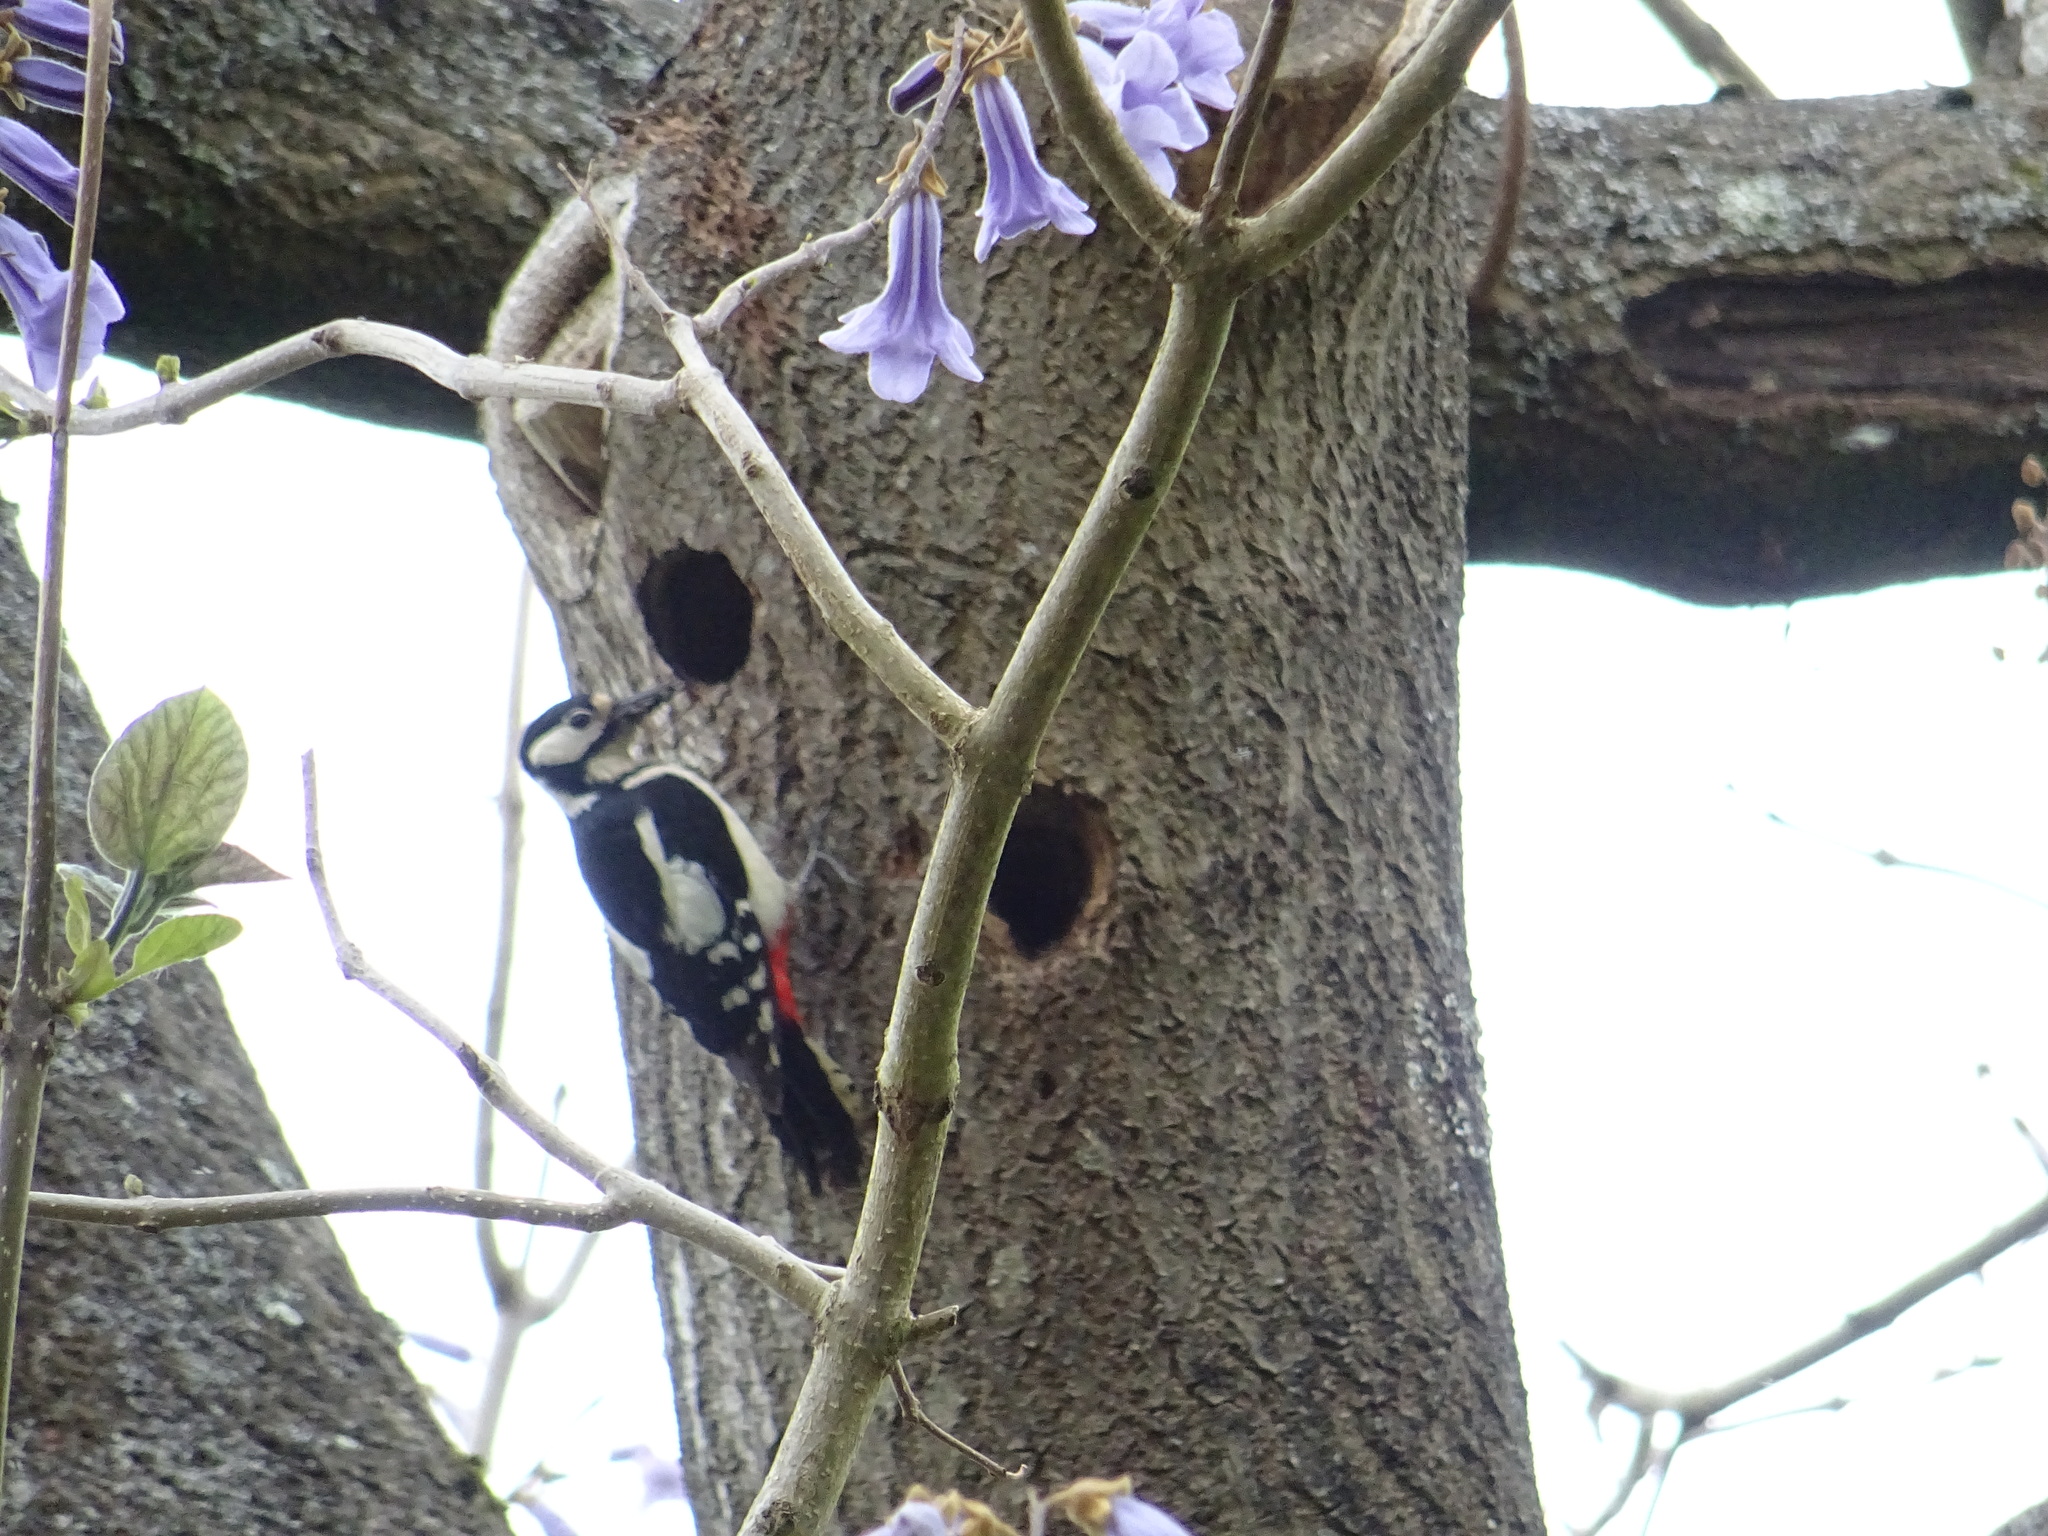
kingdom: Animalia
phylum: Chordata
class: Aves
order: Piciformes
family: Picidae
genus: Dendrocopos
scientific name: Dendrocopos major
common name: Great spotted woodpecker
